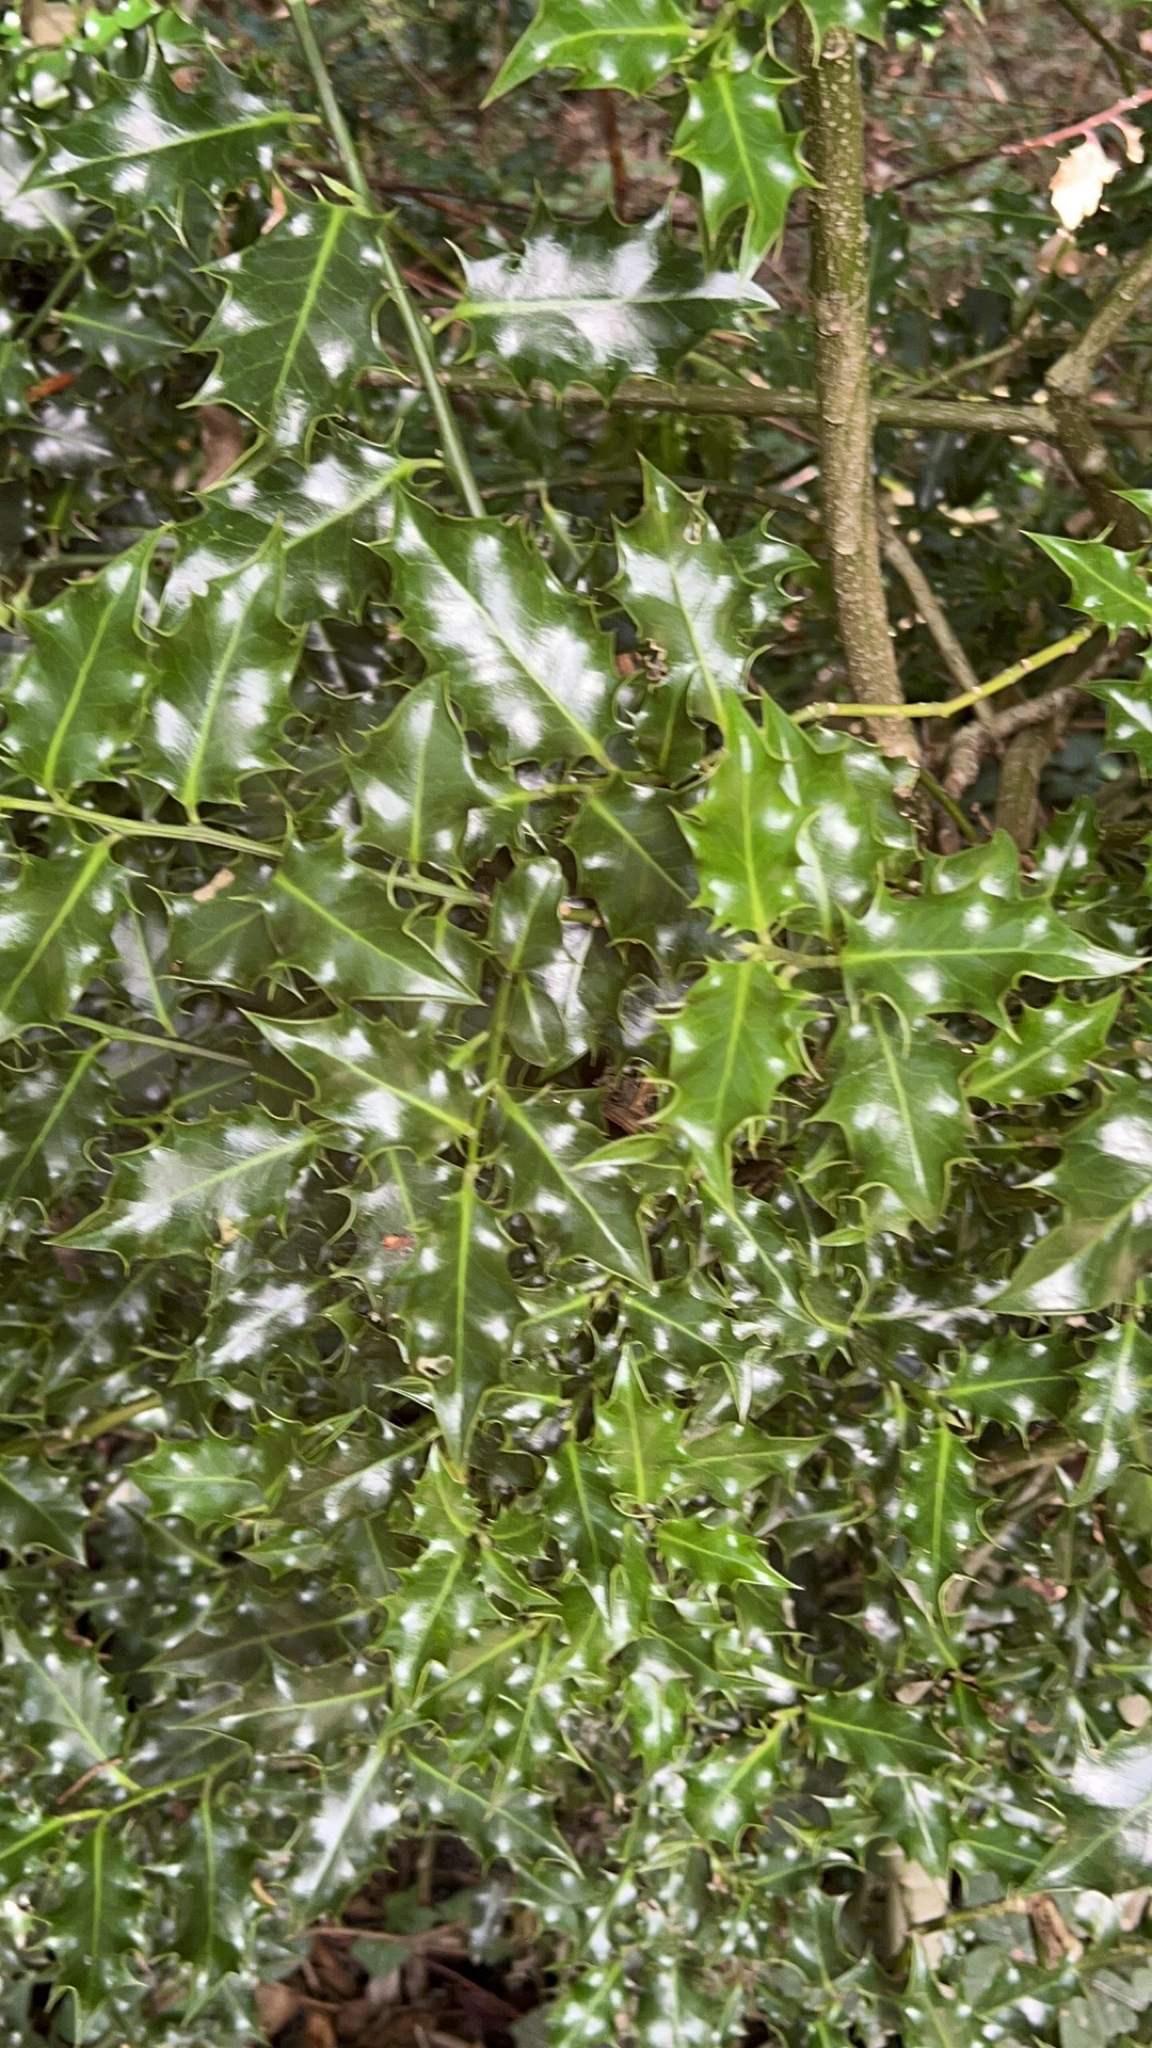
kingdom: Plantae
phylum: Tracheophyta
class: Magnoliopsida
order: Aquifoliales
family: Aquifoliaceae
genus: Ilex
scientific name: Ilex aquifolium
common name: English holly
